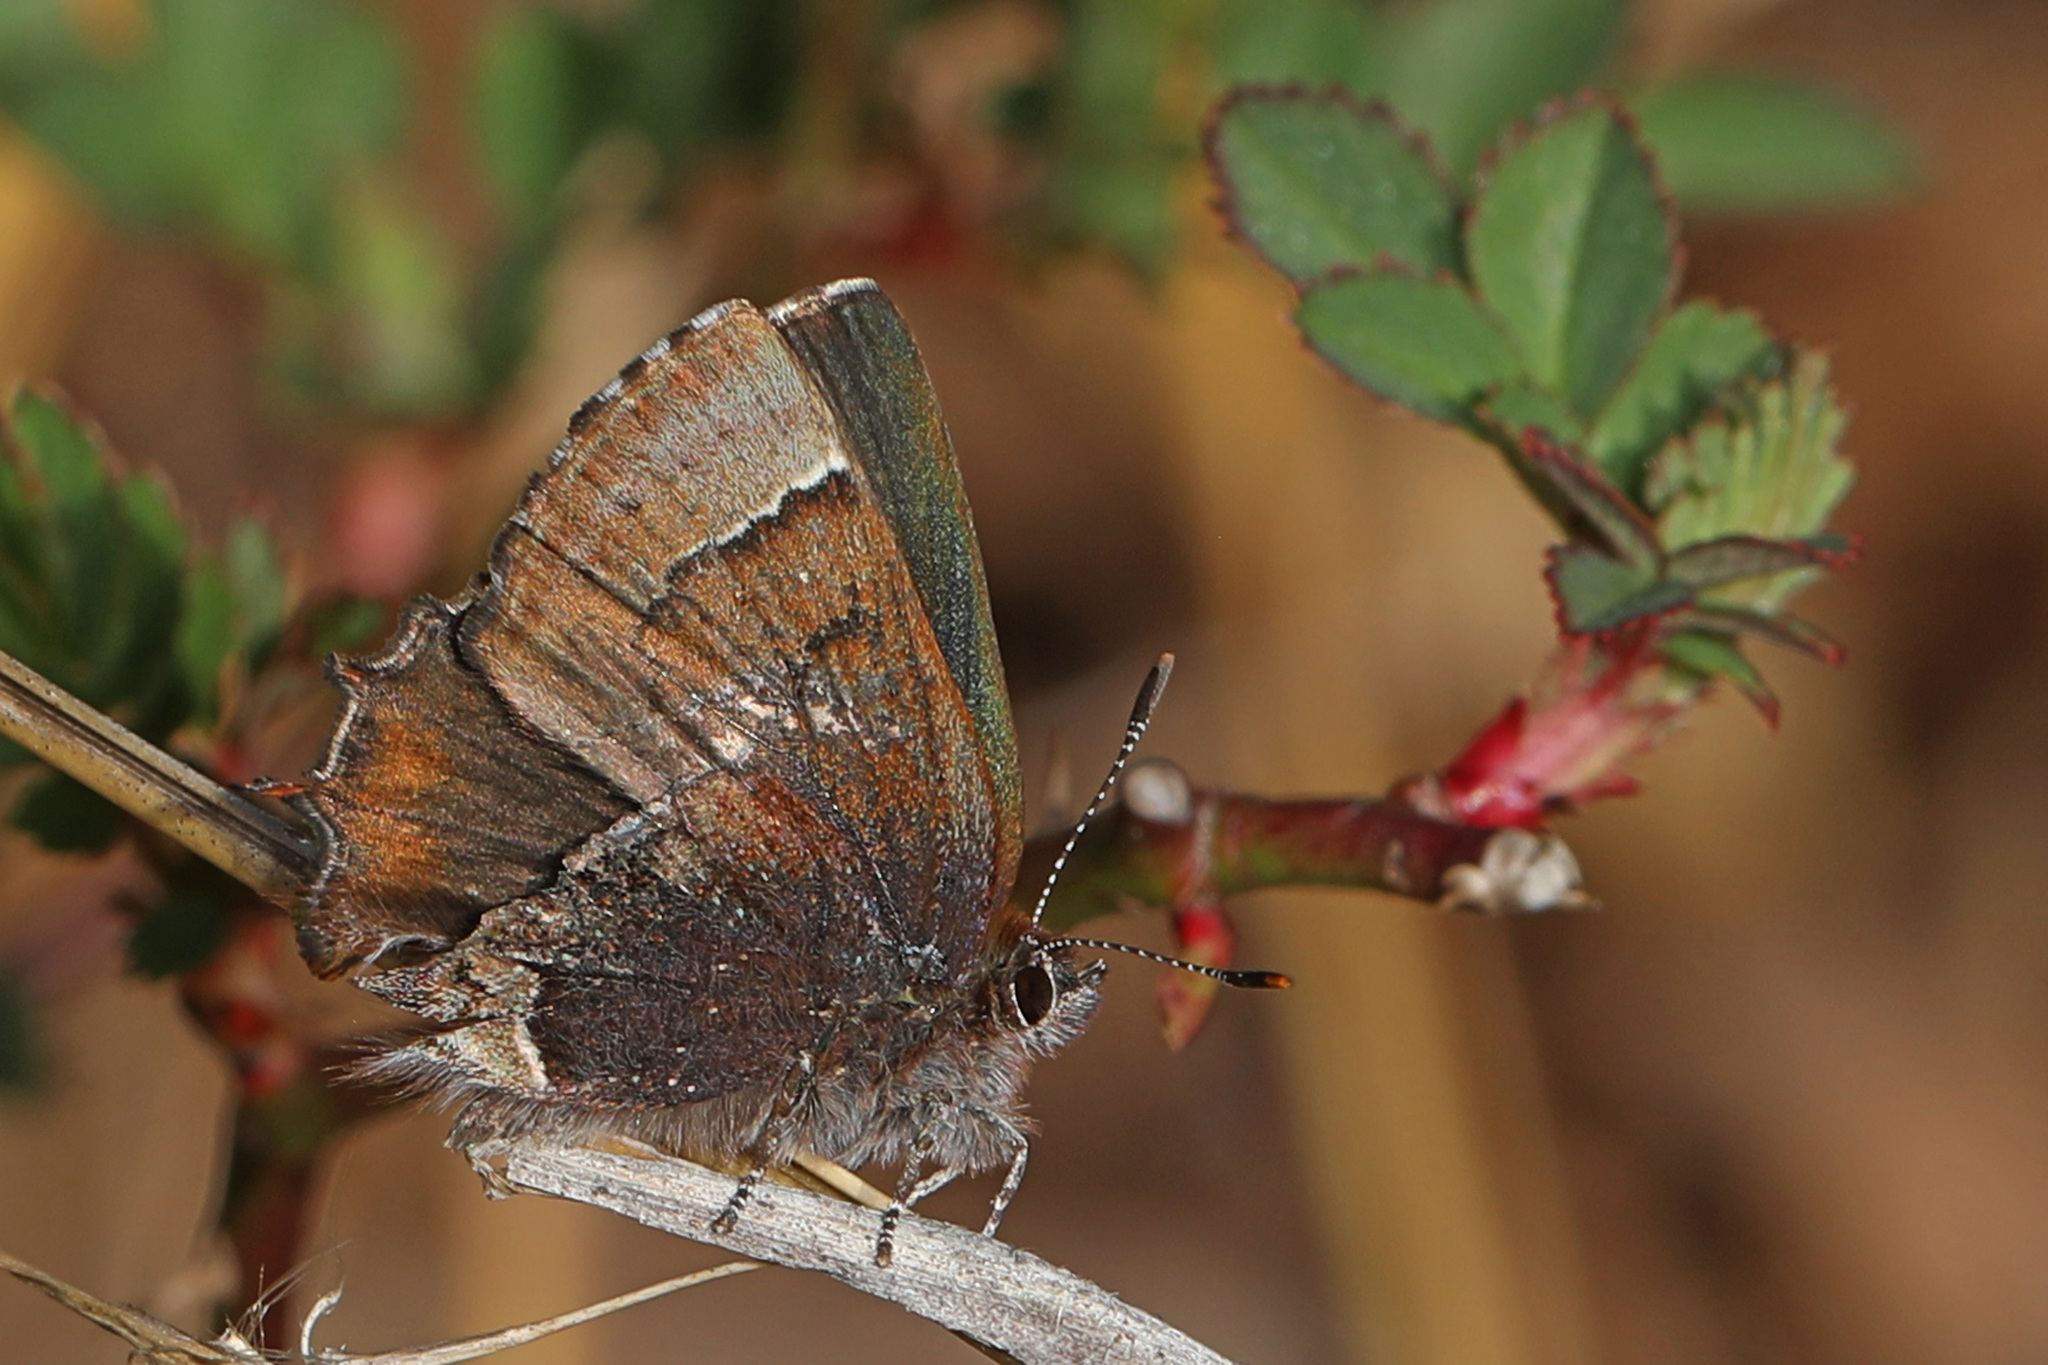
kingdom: Animalia
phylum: Arthropoda
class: Insecta
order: Lepidoptera
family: Lycaenidae
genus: Incisalia
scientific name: Incisalia henrici
